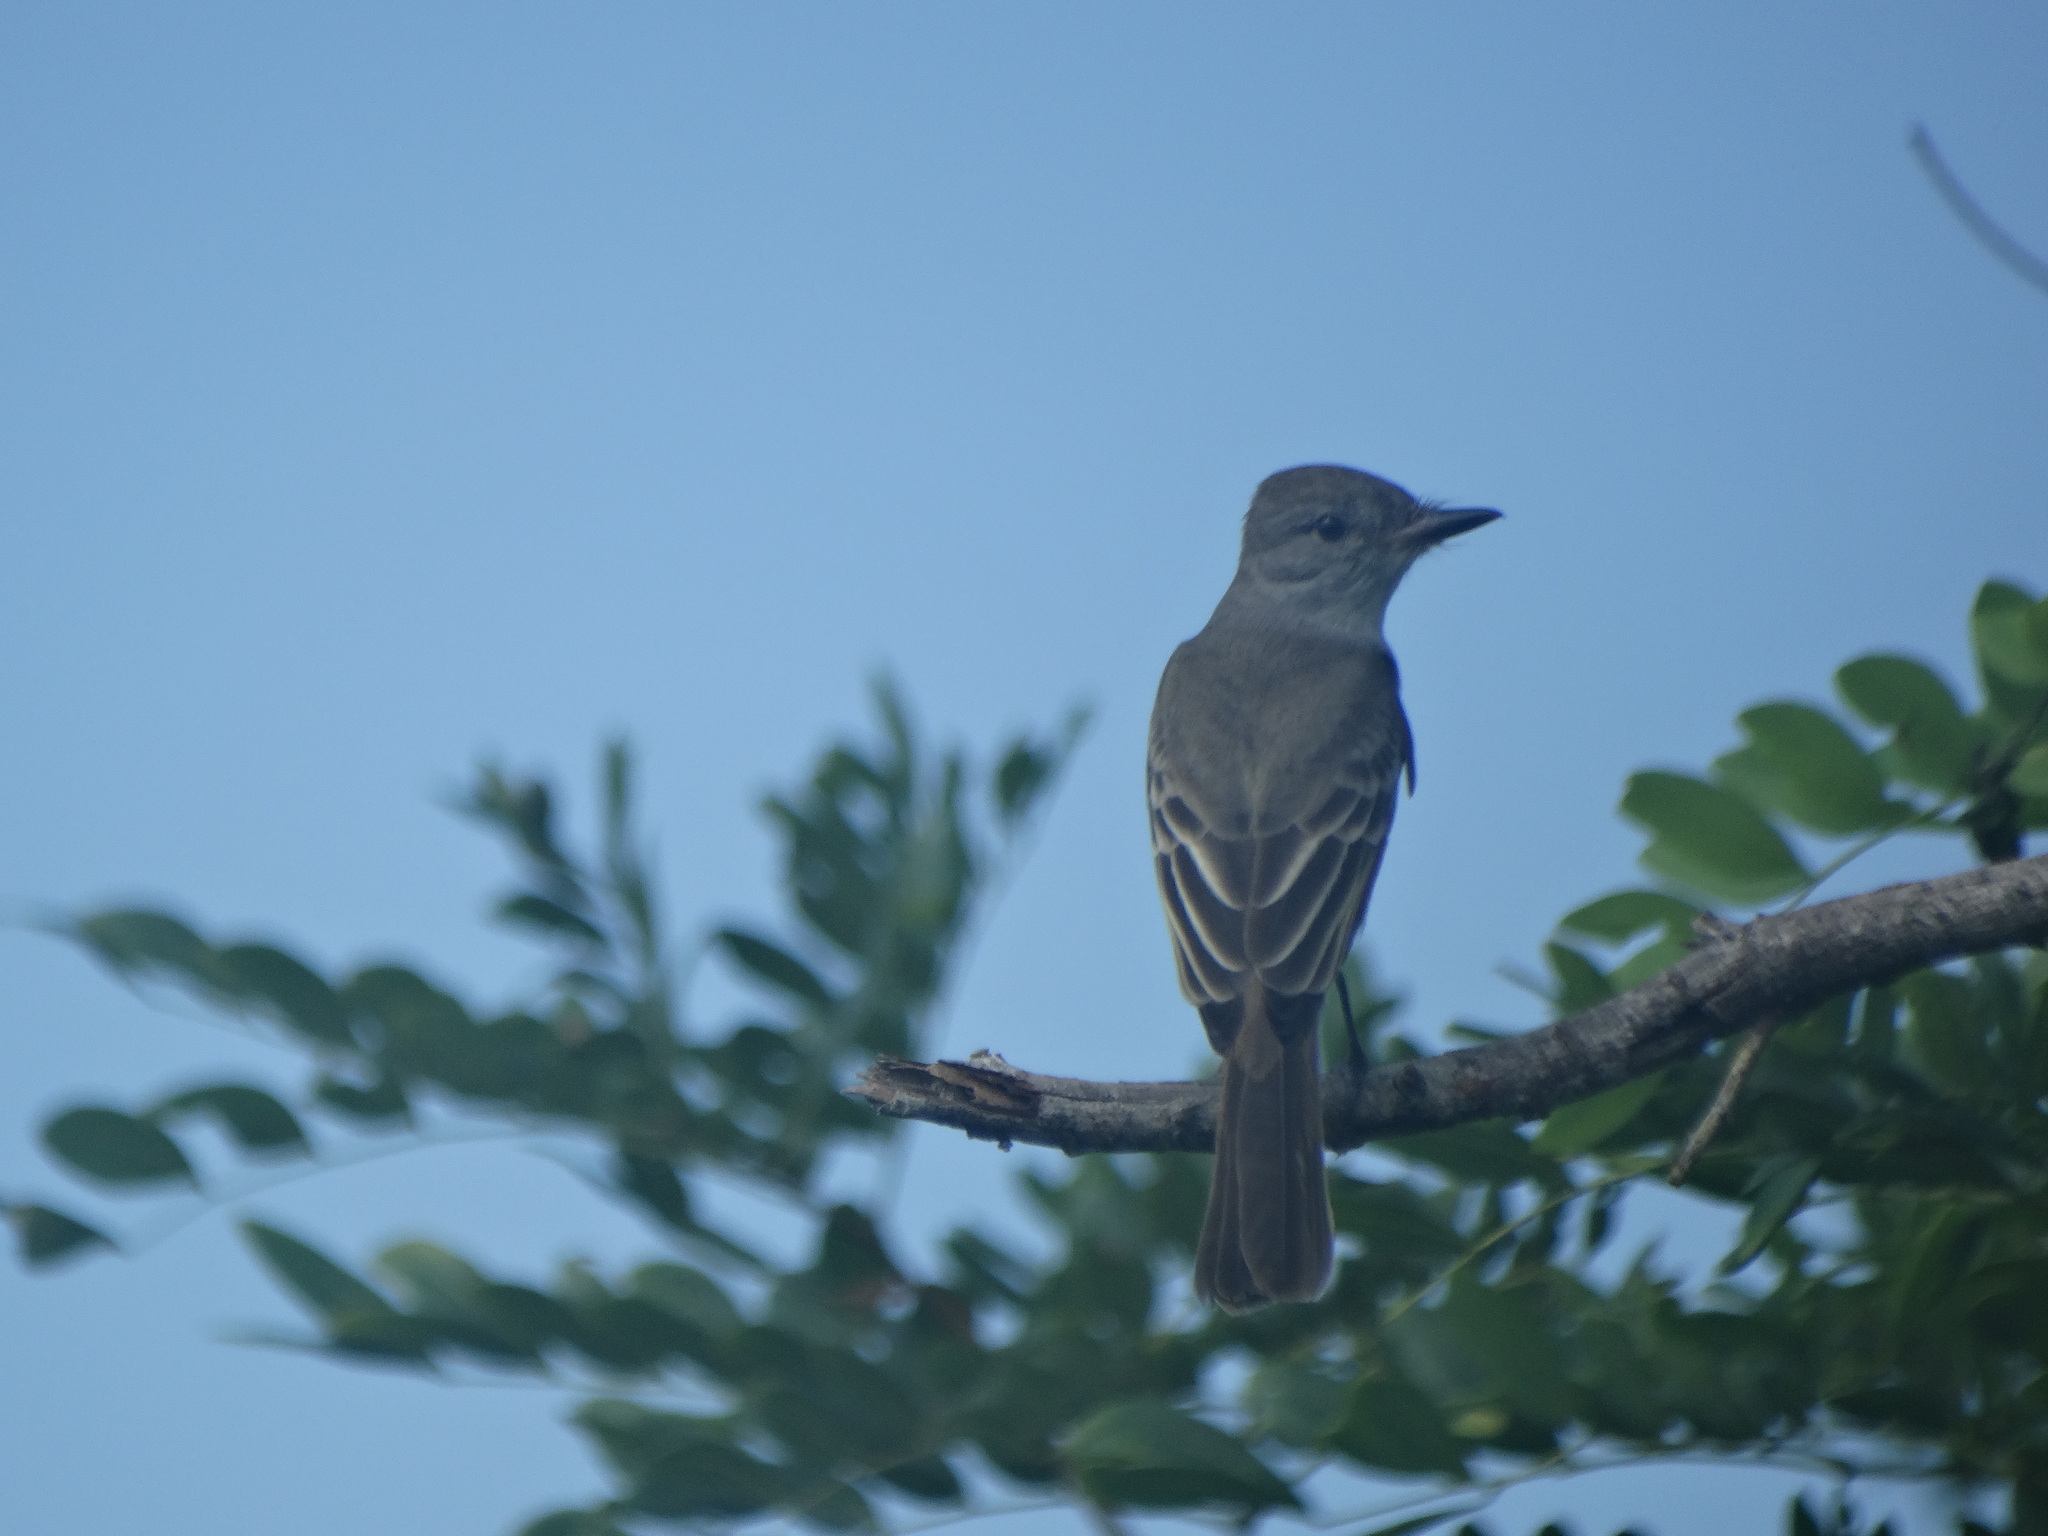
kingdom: Animalia
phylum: Chordata
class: Aves
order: Passeriformes
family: Tyrannidae
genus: Myiarchus
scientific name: Myiarchus
